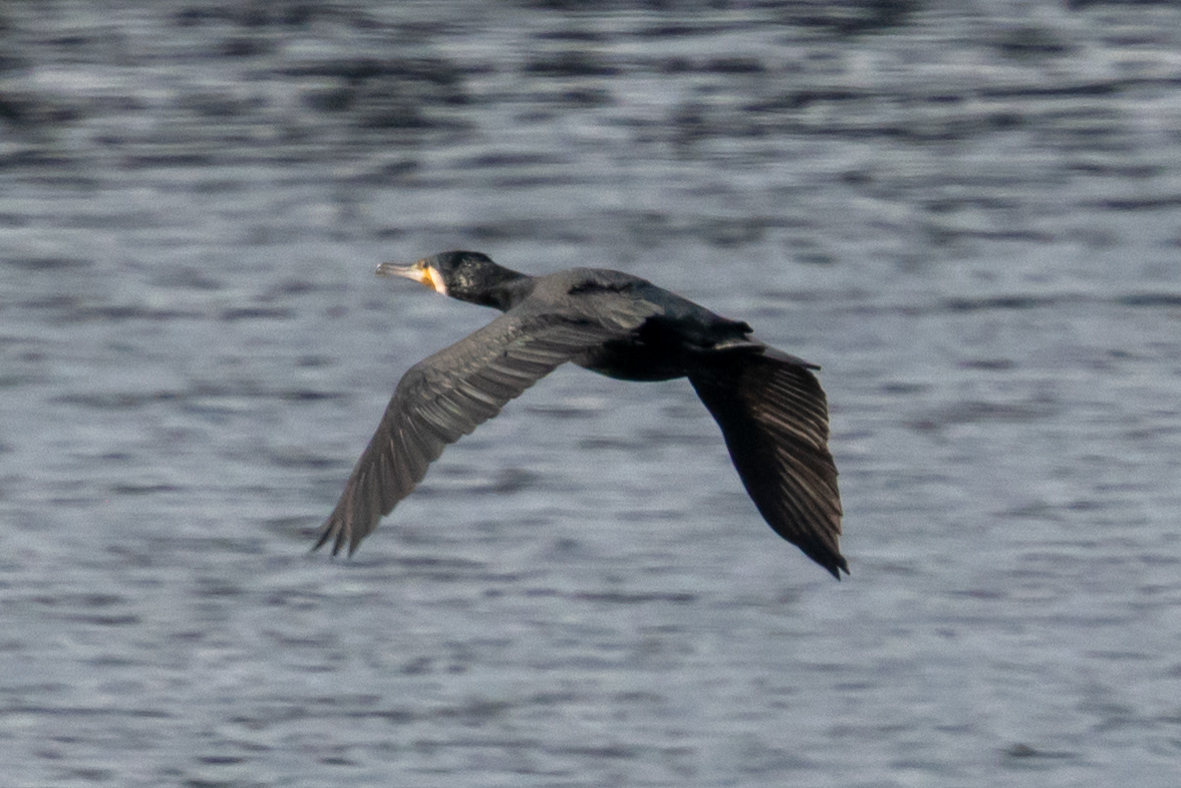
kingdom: Animalia
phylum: Chordata
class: Aves
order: Suliformes
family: Phalacrocoracidae
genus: Phalacrocorax
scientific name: Phalacrocorax carbo
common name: Great cormorant
